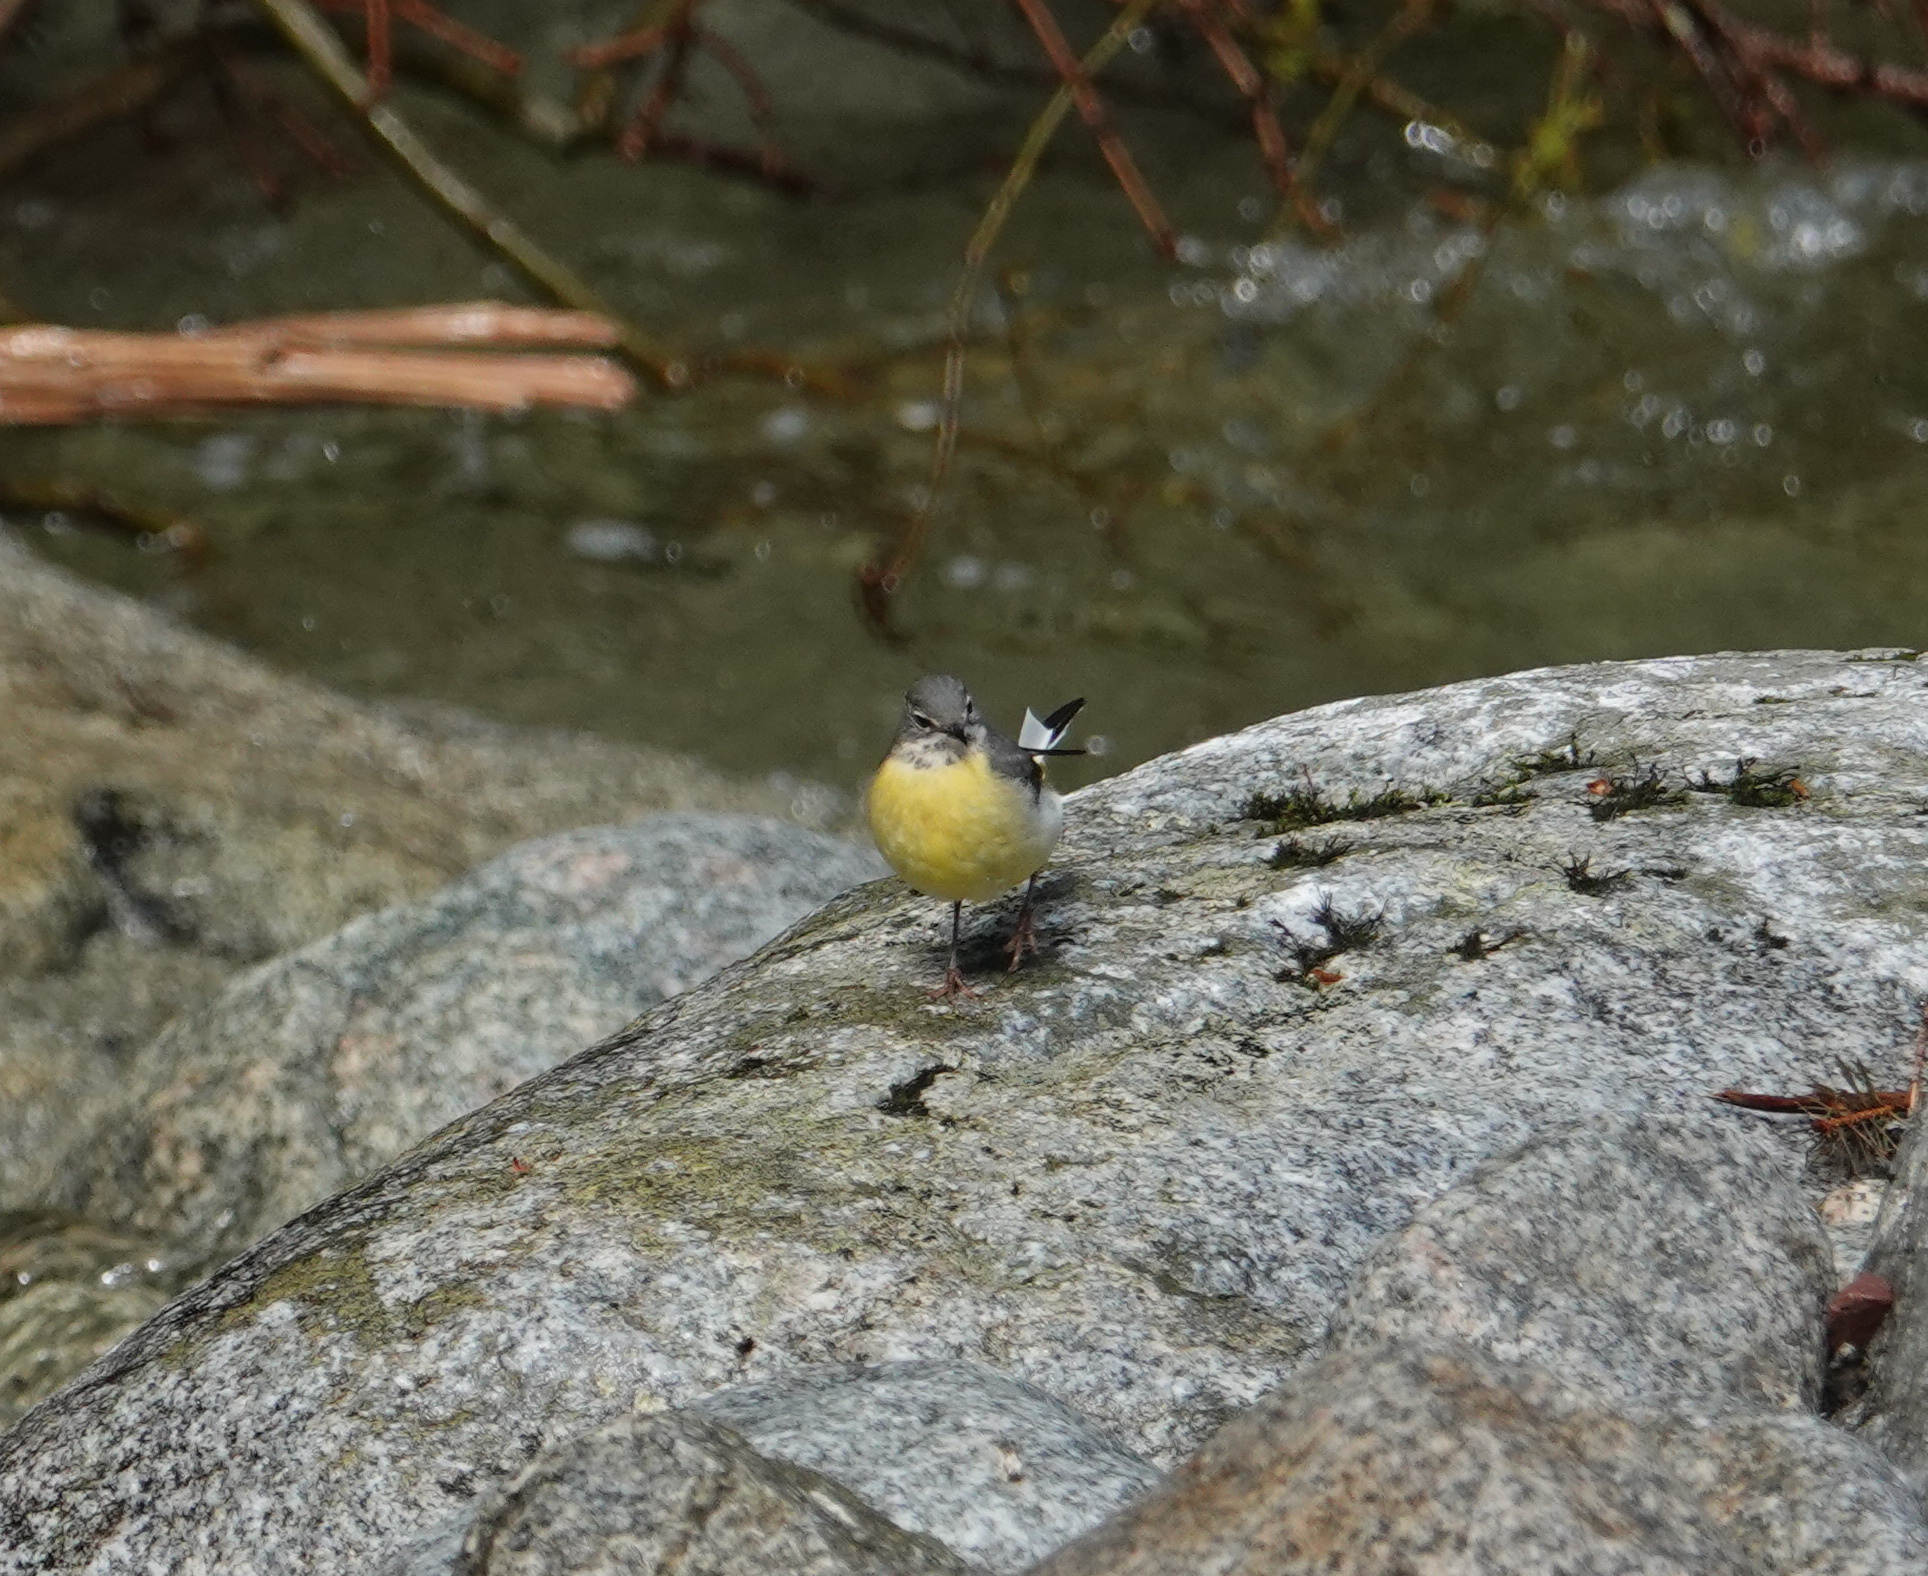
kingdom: Animalia
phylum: Chordata
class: Aves
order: Passeriformes
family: Motacillidae
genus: Motacilla
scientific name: Motacilla cinerea
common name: Grey wagtail
